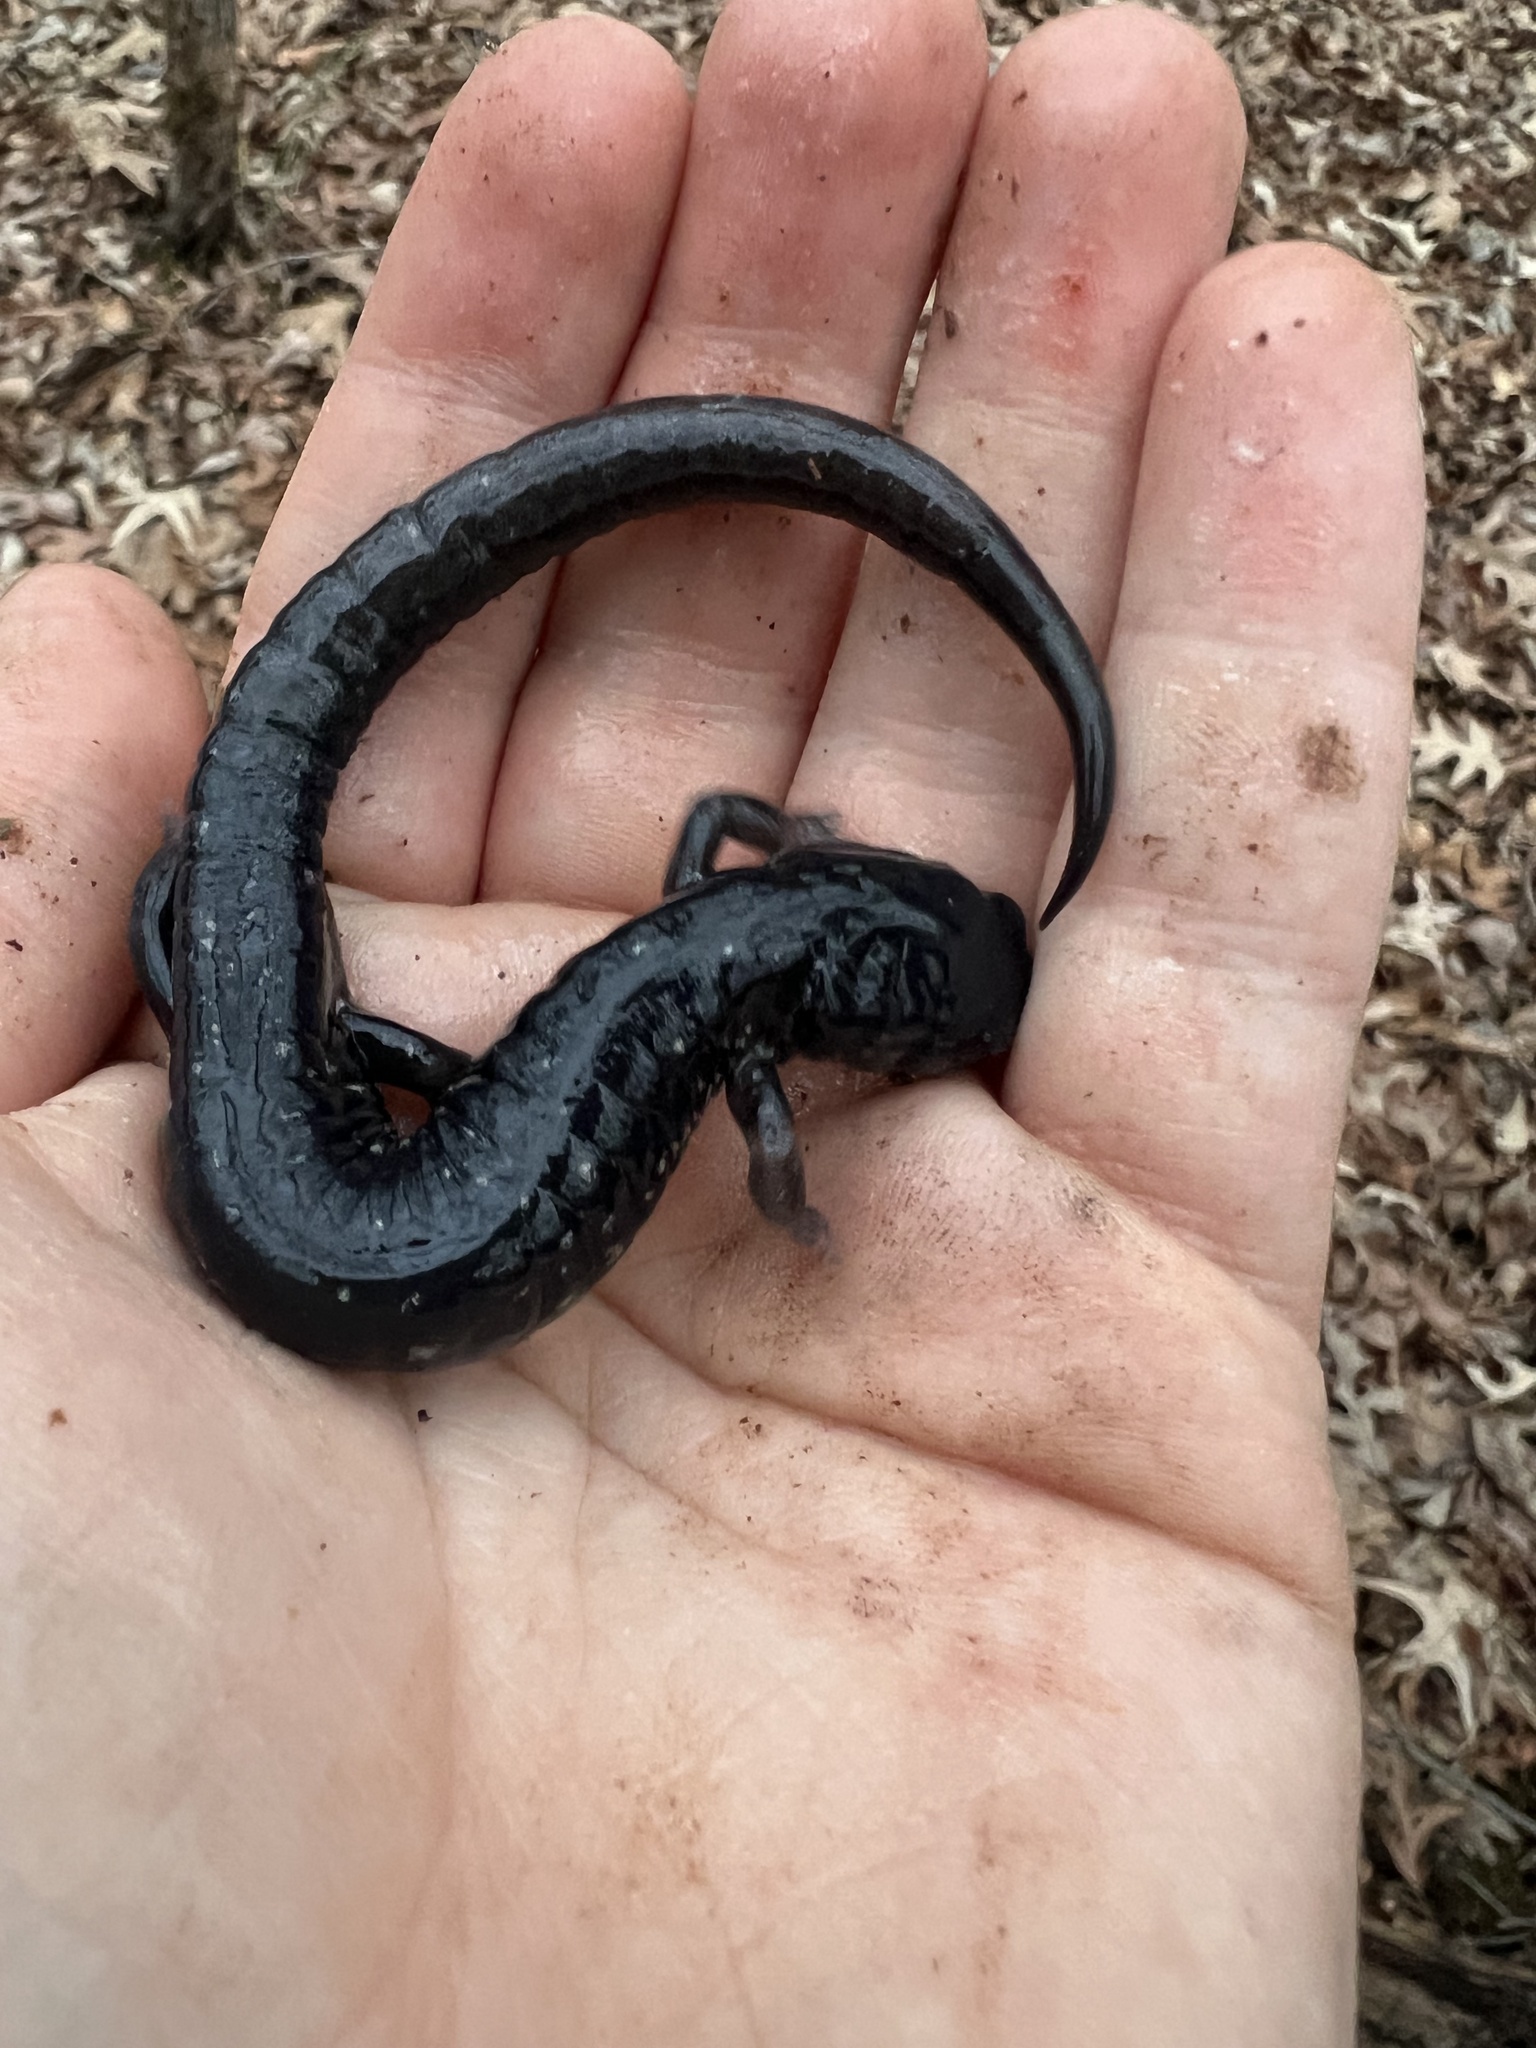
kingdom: Animalia
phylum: Chordata
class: Amphibia
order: Caudata
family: Plethodontidae
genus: Plethodon
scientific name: Plethodon cylindraceus
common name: White-spotted slimy salamander
